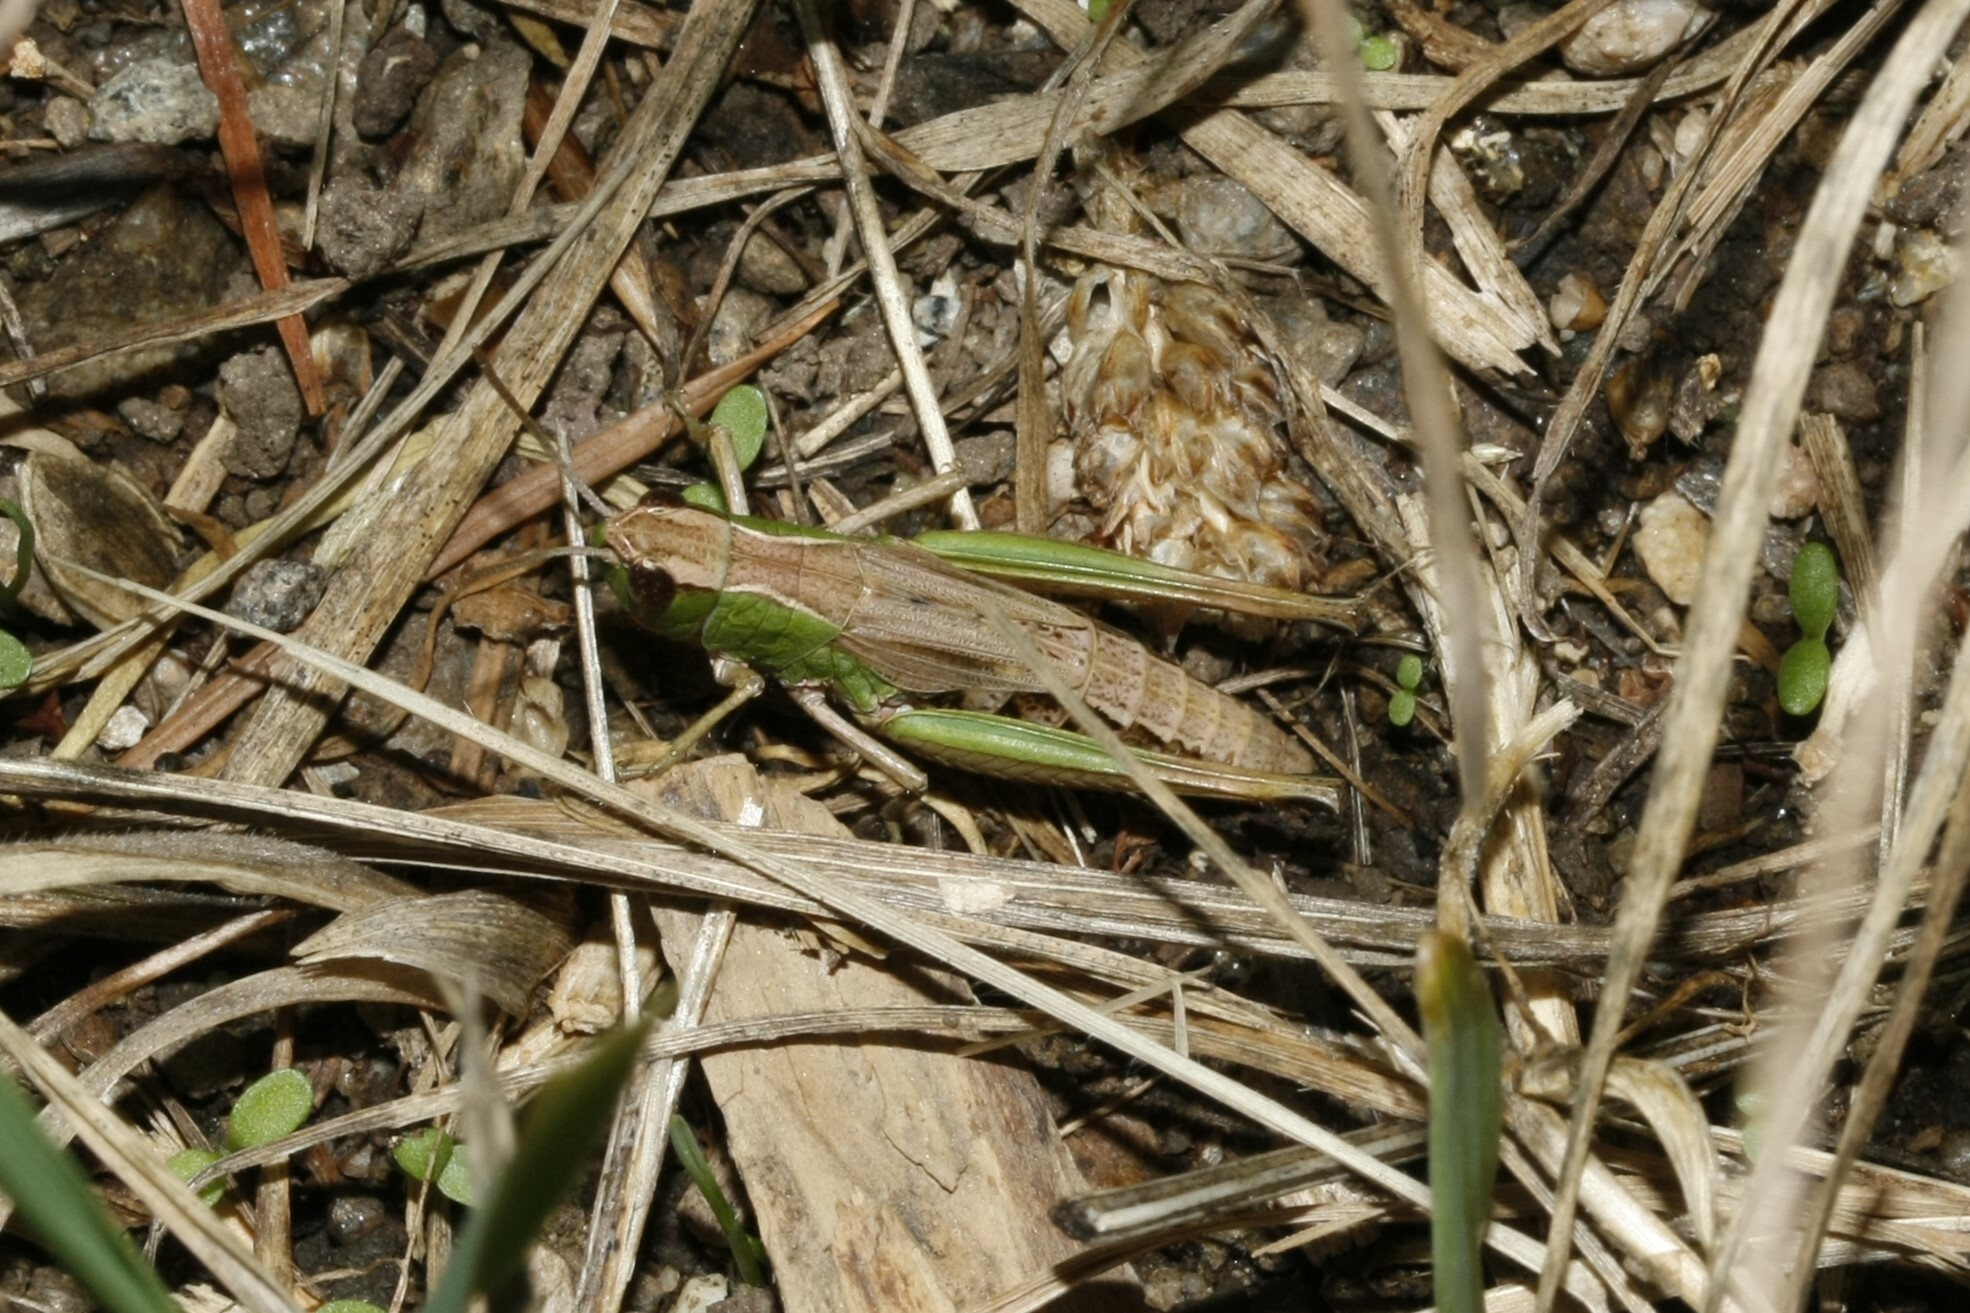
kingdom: Animalia
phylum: Arthropoda
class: Insecta
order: Orthoptera
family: Acrididae
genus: Pseudochorthippus
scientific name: Pseudochorthippus parallelus
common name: Meadow grasshopper
